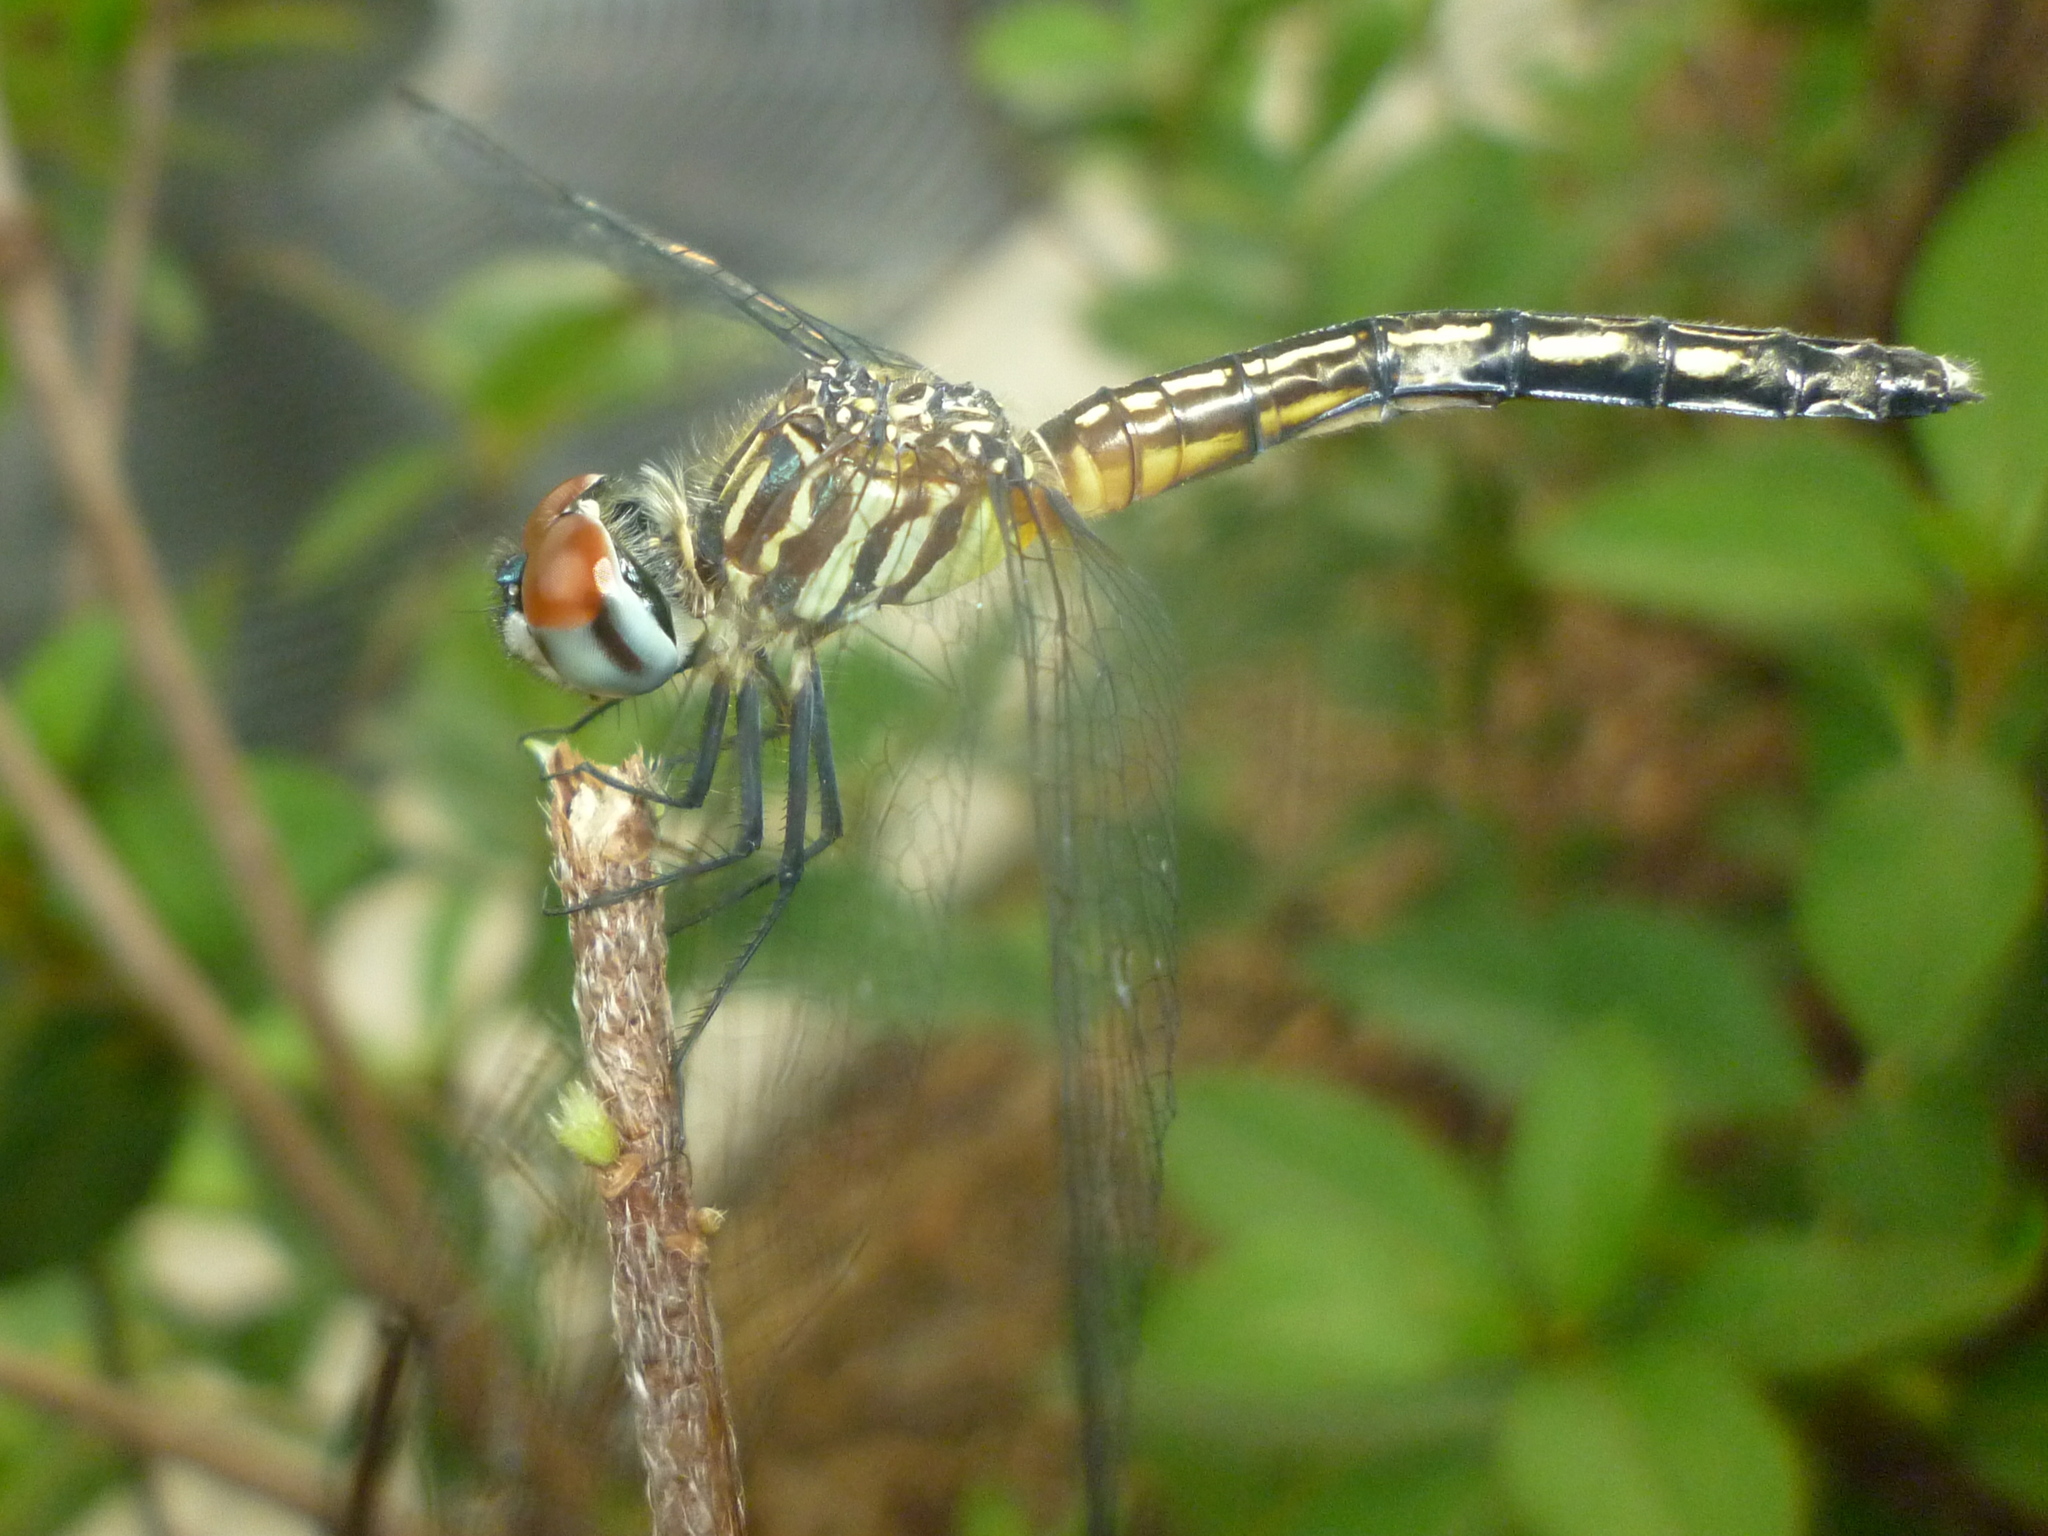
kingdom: Animalia
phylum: Arthropoda
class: Insecta
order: Odonata
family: Libellulidae
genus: Pachydiplax
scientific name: Pachydiplax longipennis
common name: Blue dasher
